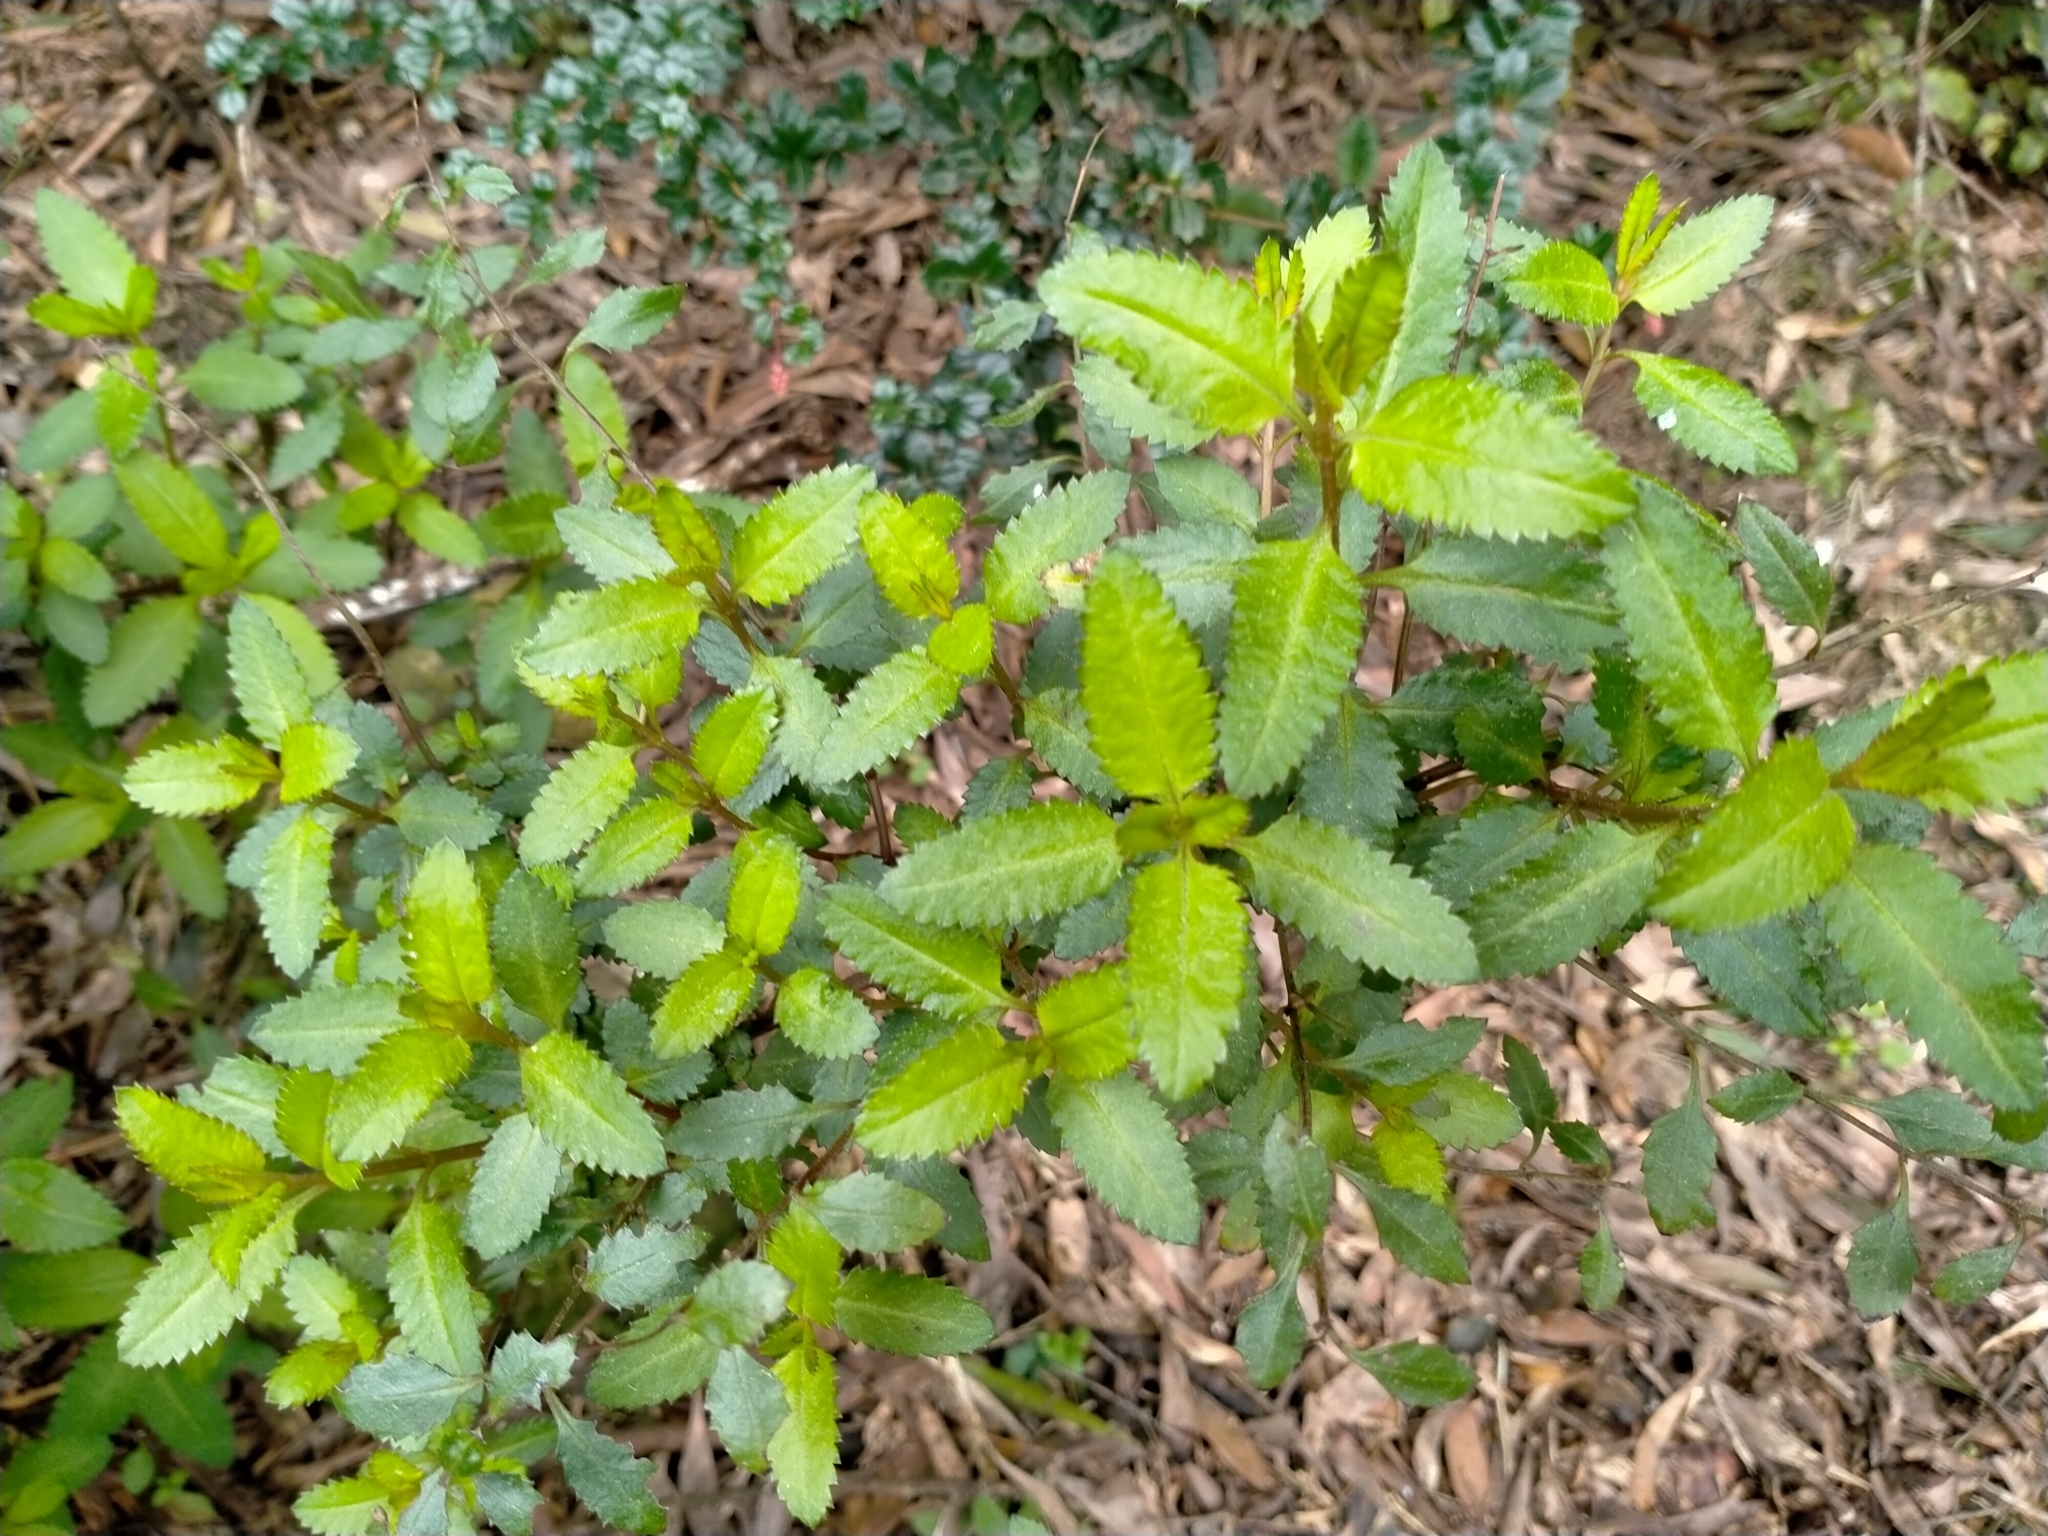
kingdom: Plantae
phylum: Tracheophyta
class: Magnoliopsida
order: Saxifragales
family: Haloragaceae
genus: Haloragis
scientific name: Haloragis erecta
